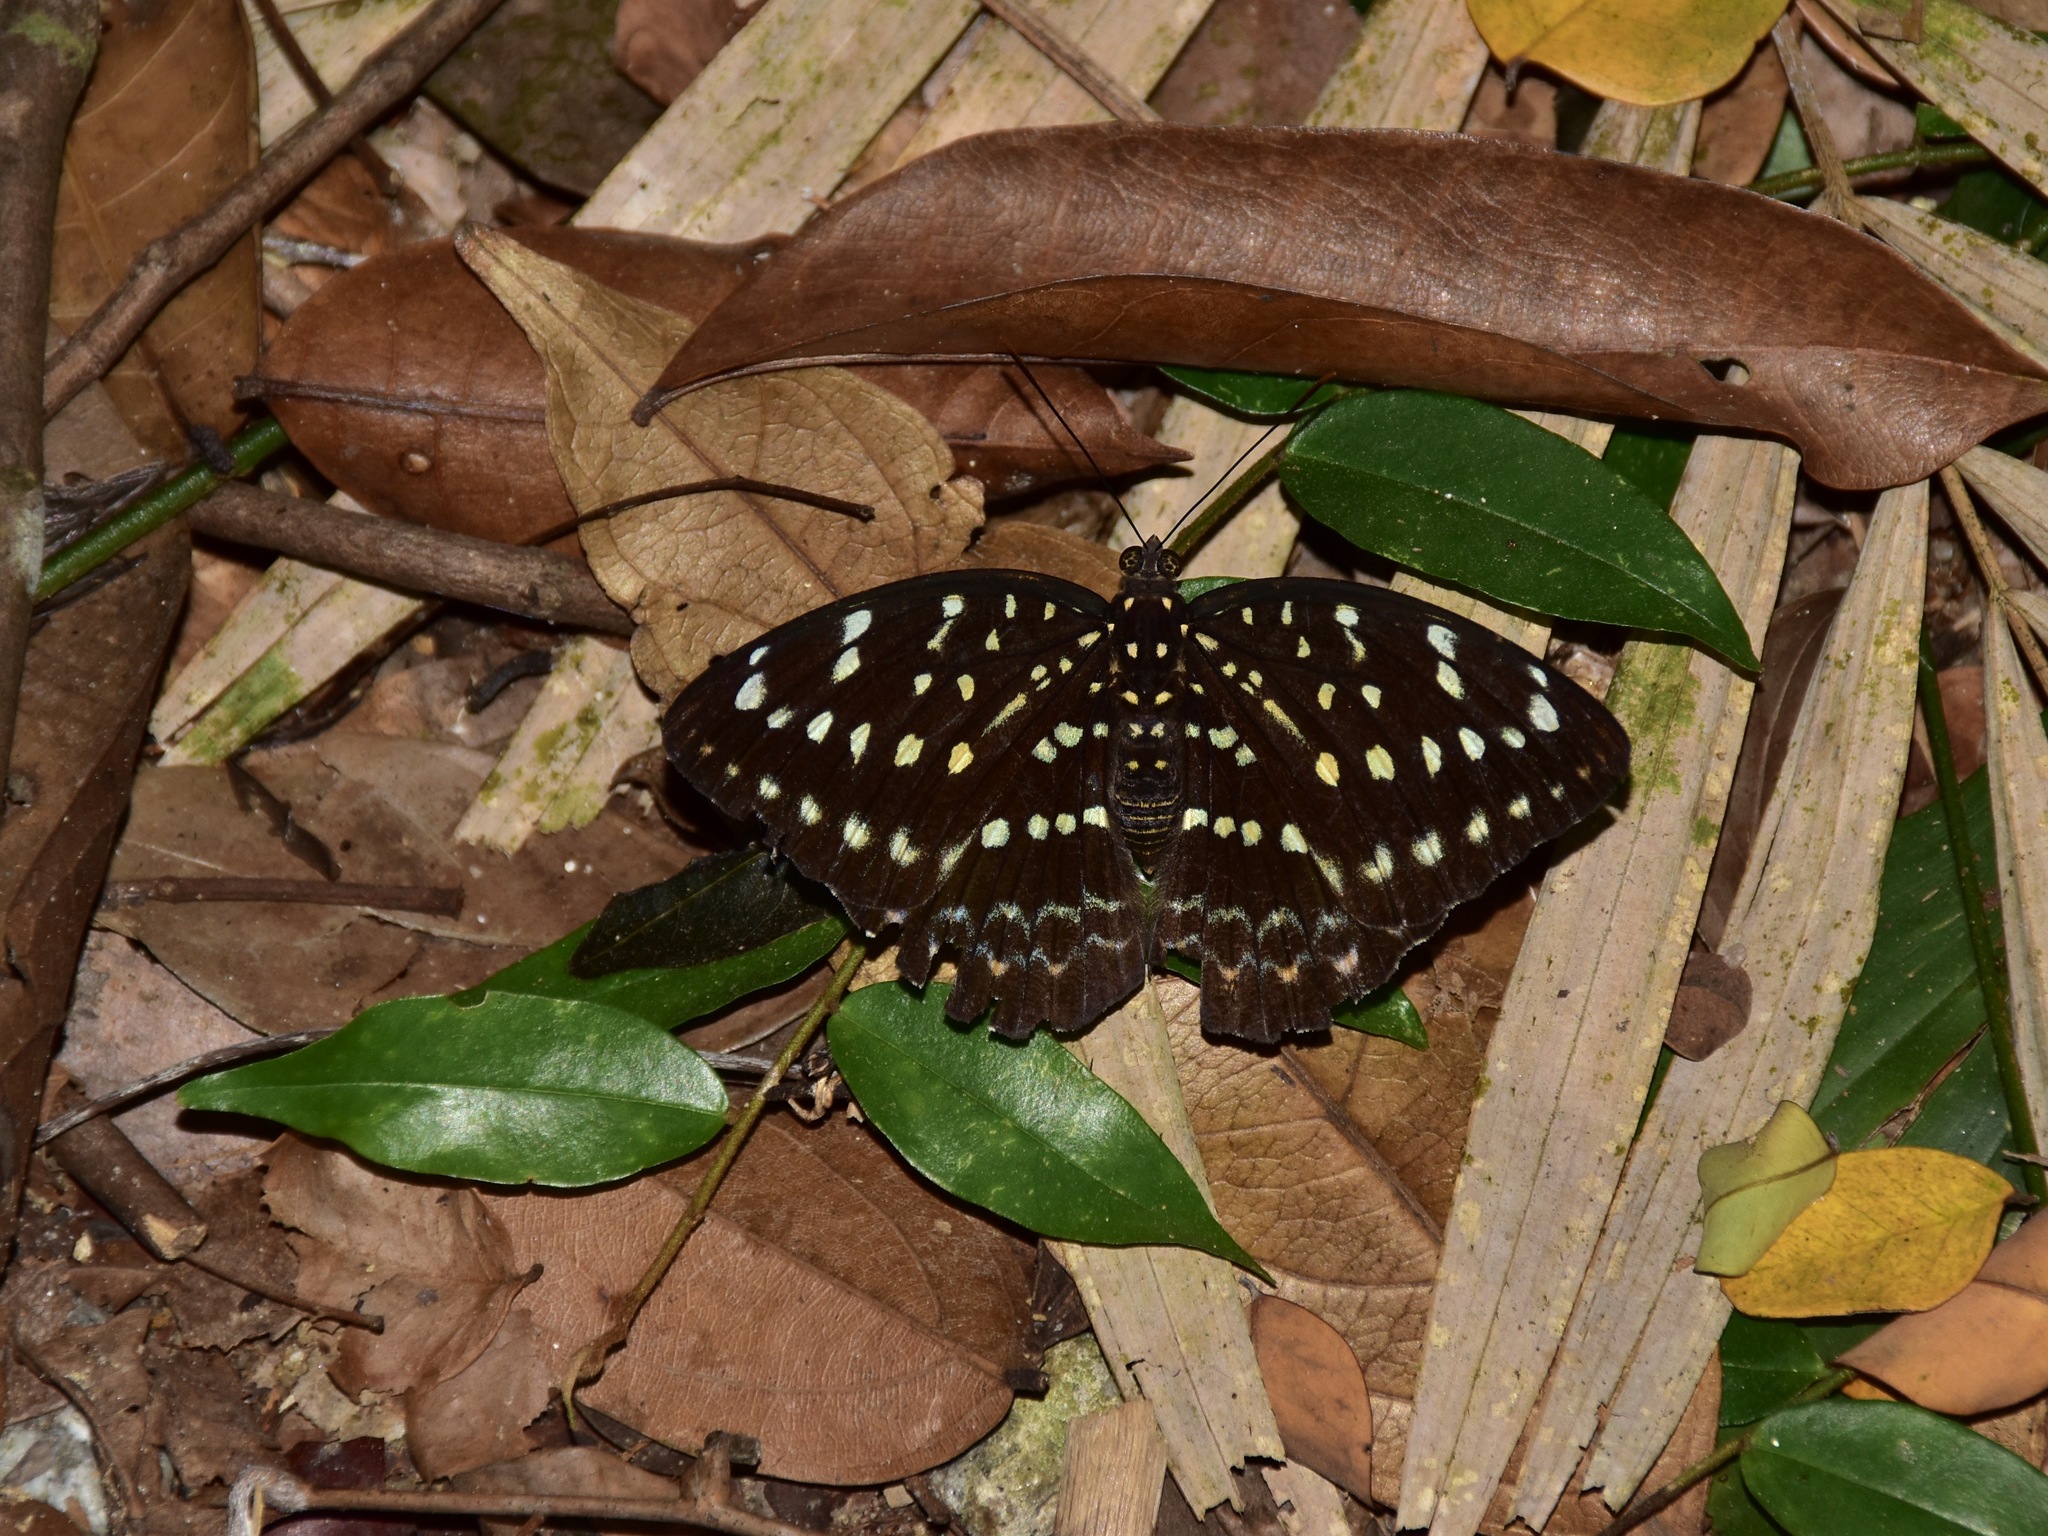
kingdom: Animalia
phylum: Arthropoda
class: Insecta
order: Lepidoptera
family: Nymphalidae
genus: Lexias
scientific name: Lexias dirtea
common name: Black-tipped archduke
